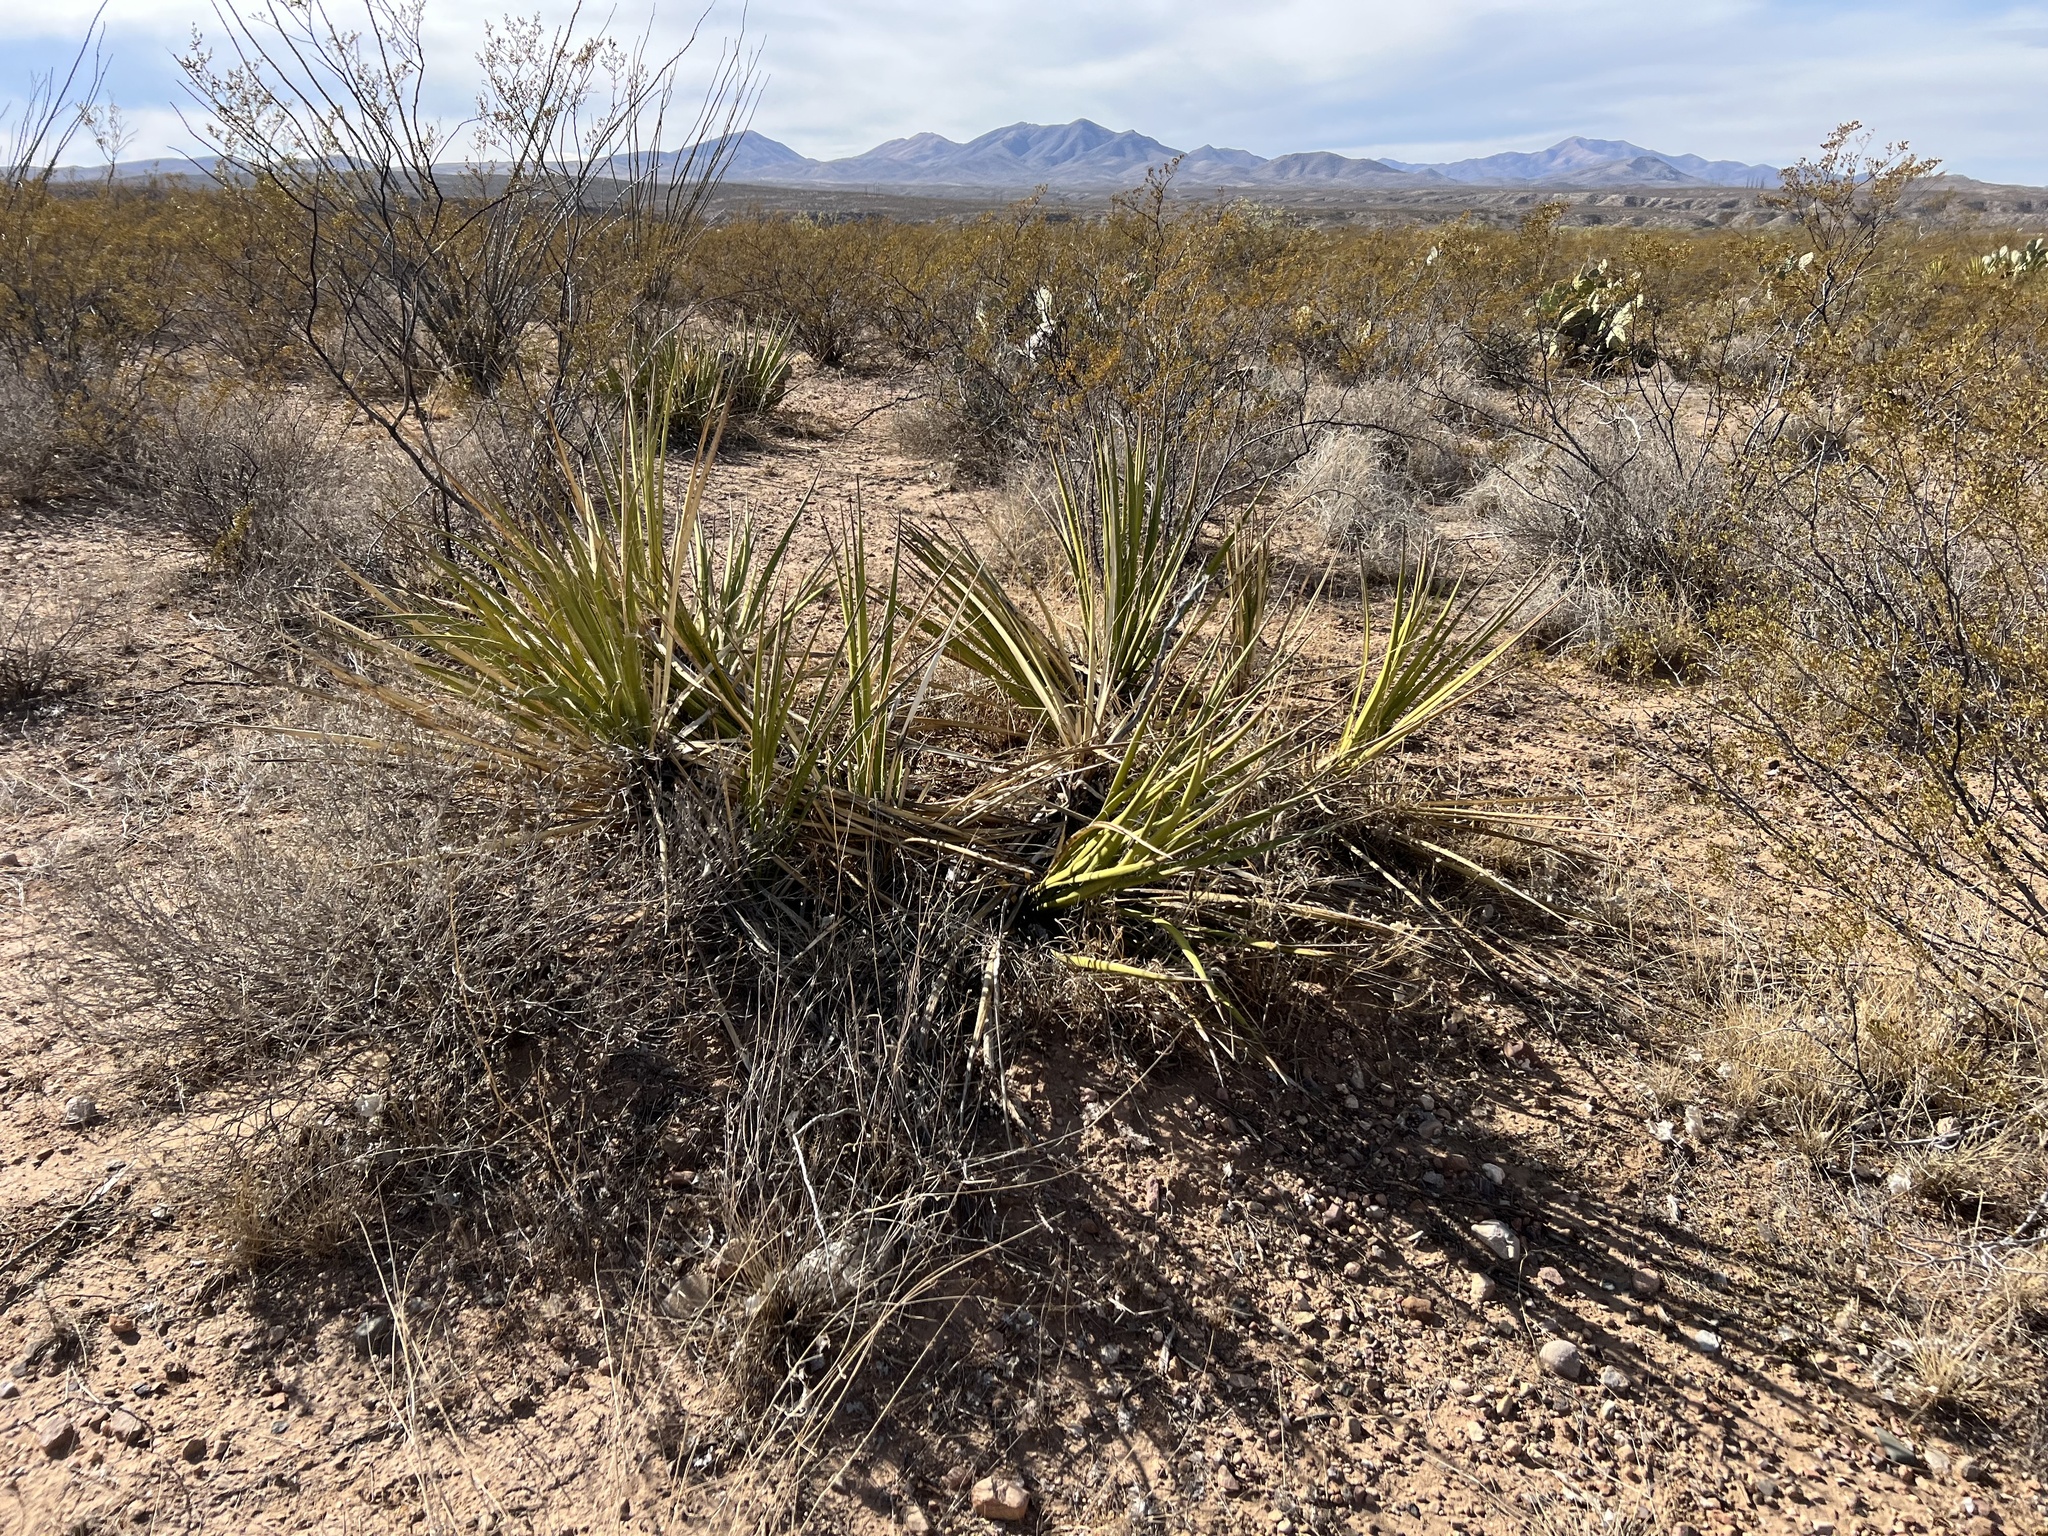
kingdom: Plantae
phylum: Tracheophyta
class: Liliopsida
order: Asparagales
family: Asparagaceae
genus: Yucca
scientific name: Yucca baccata
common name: Banana yucca
